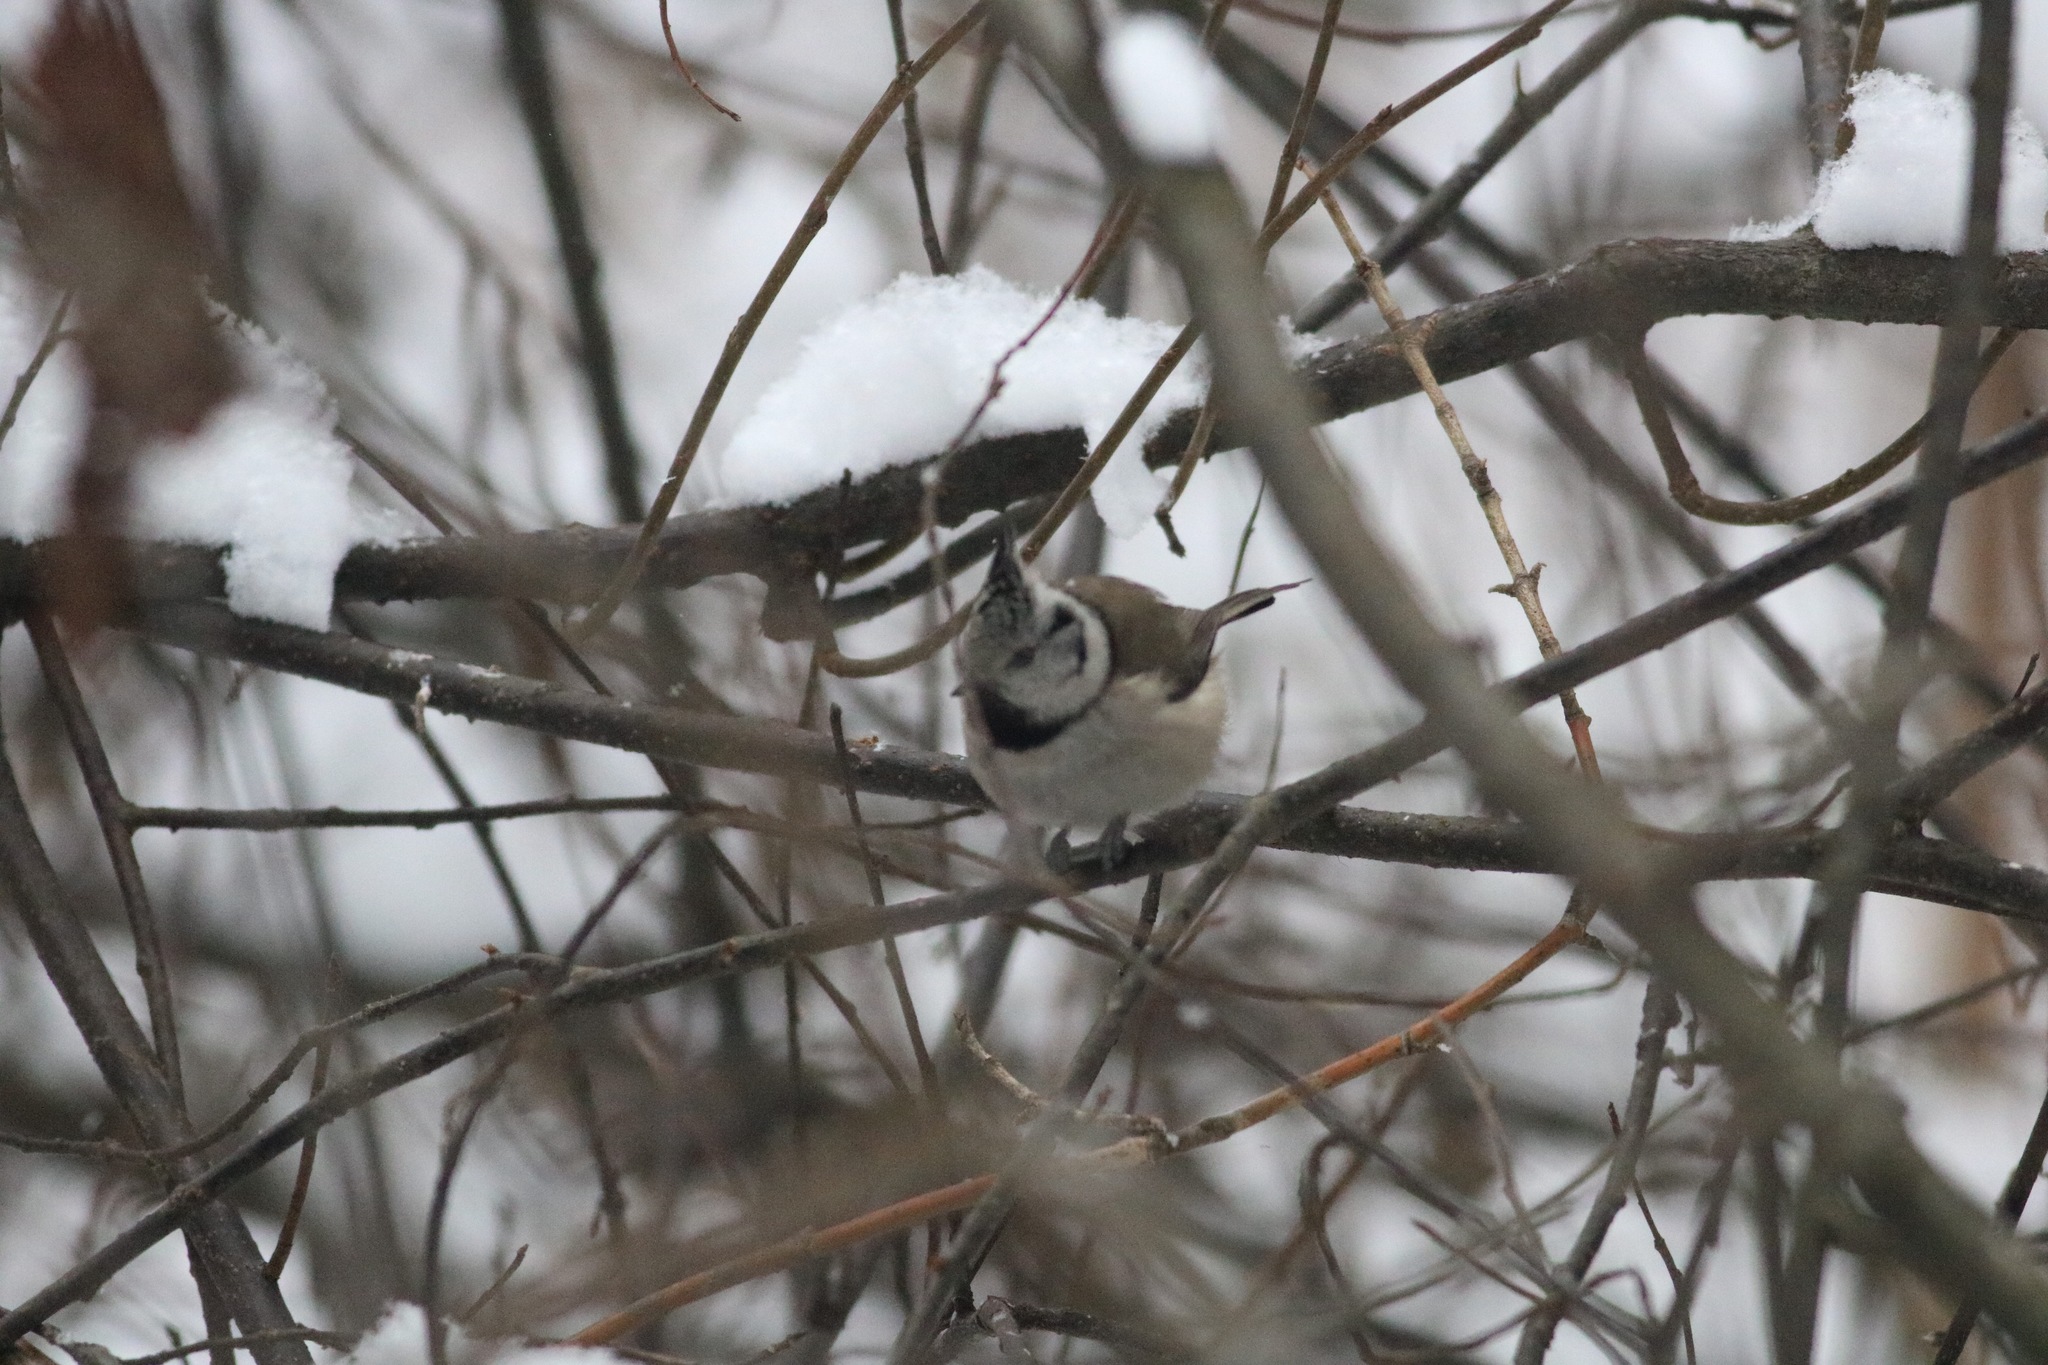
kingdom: Animalia
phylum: Chordata
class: Aves
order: Passeriformes
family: Paridae
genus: Lophophanes
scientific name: Lophophanes cristatus
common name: European crested tit
